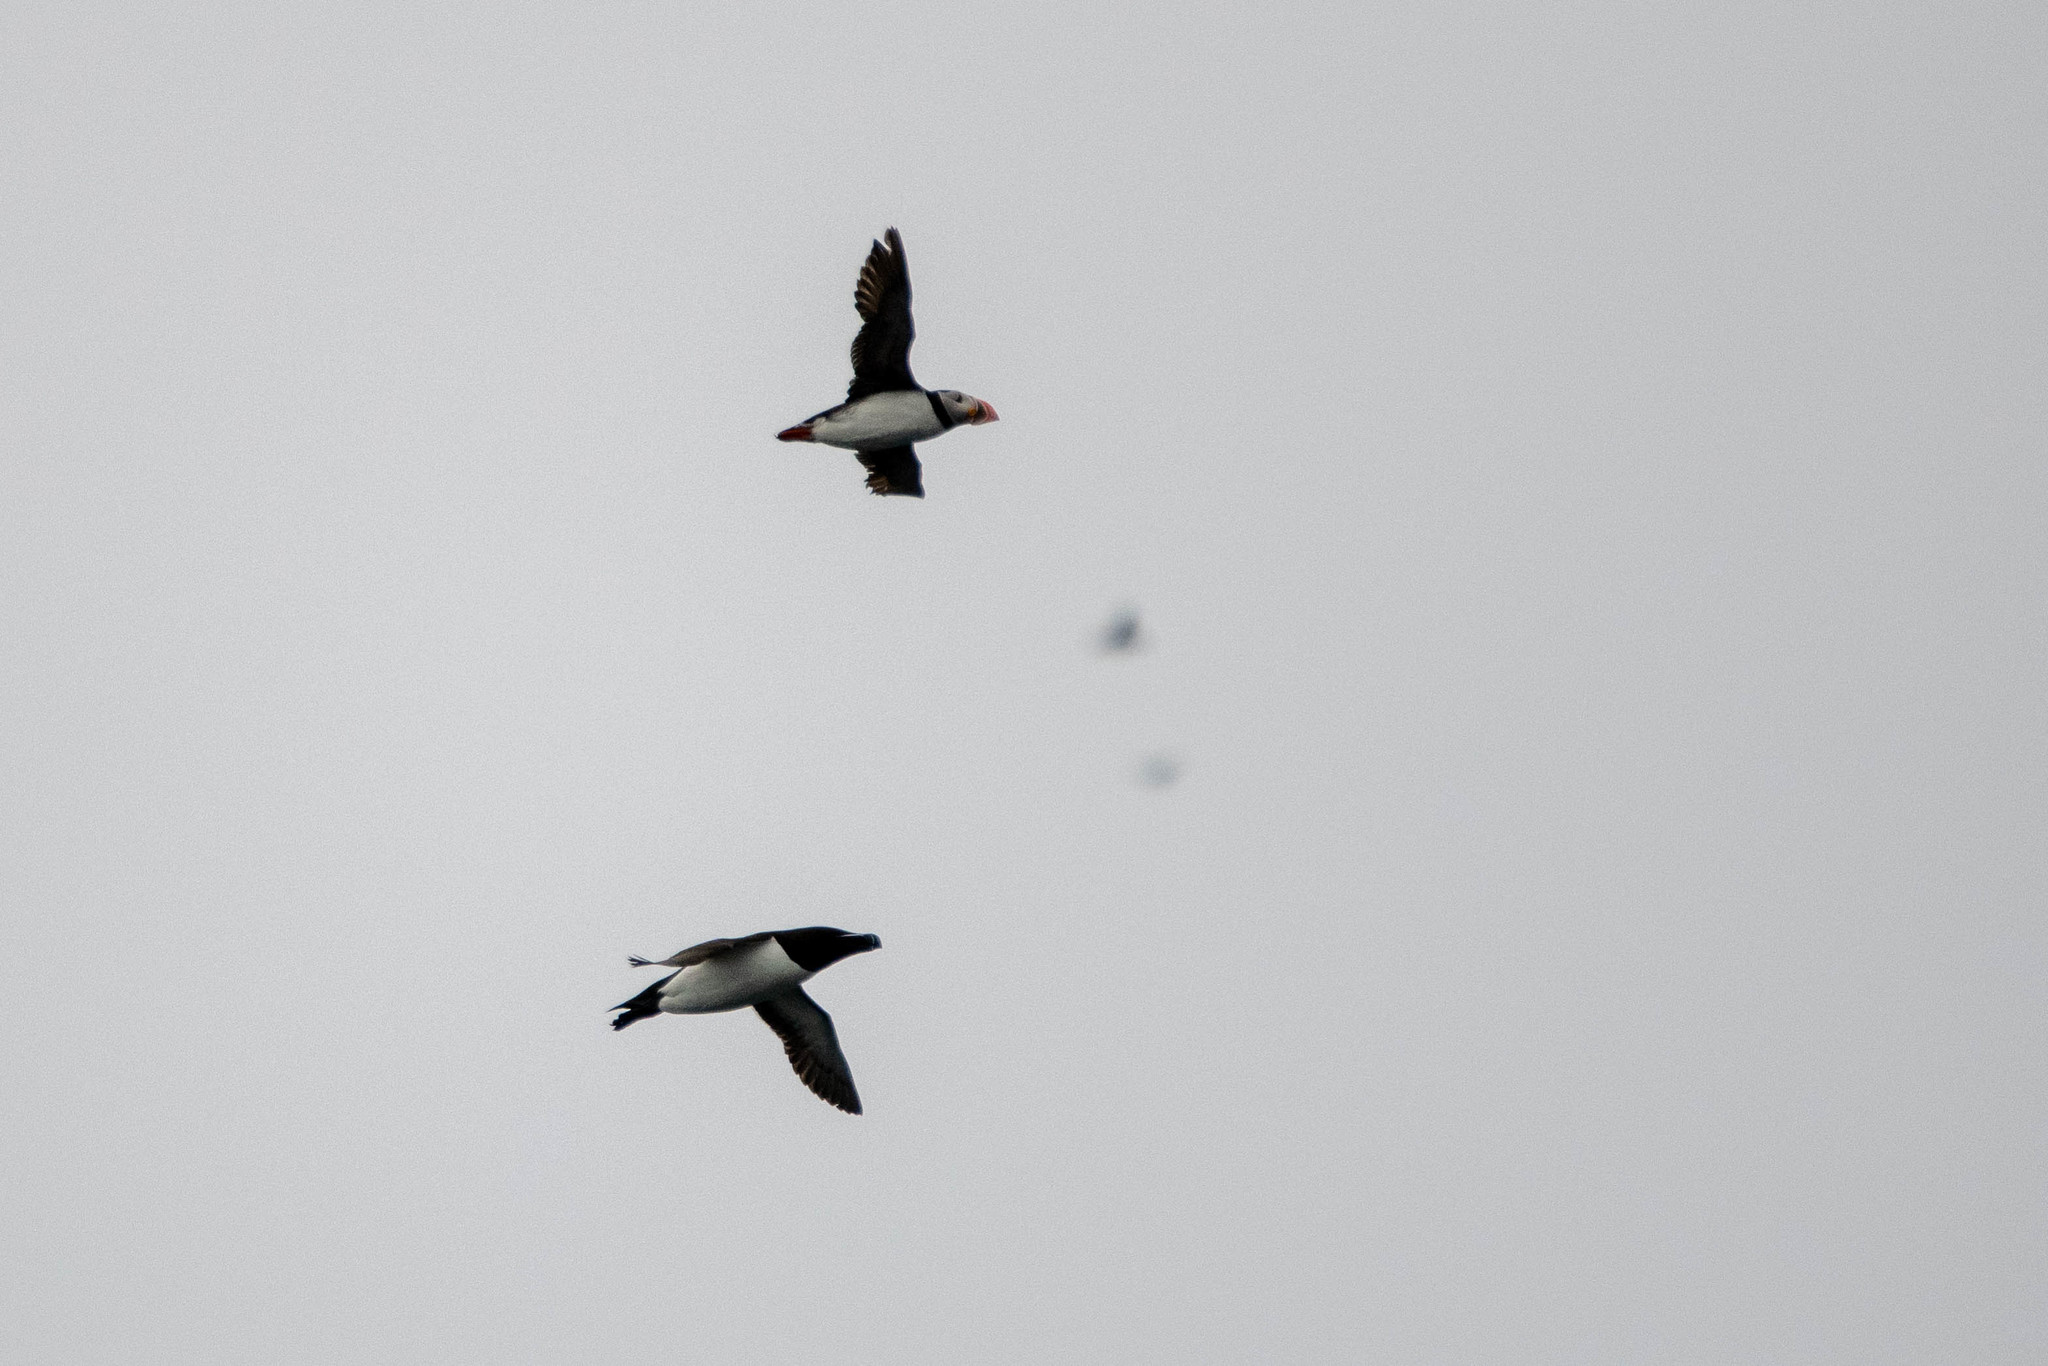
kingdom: Animalia
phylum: Chordata
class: Aves
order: Charadriiformes
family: Alcidae
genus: Alca
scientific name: Alca torda
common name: Razorbill
